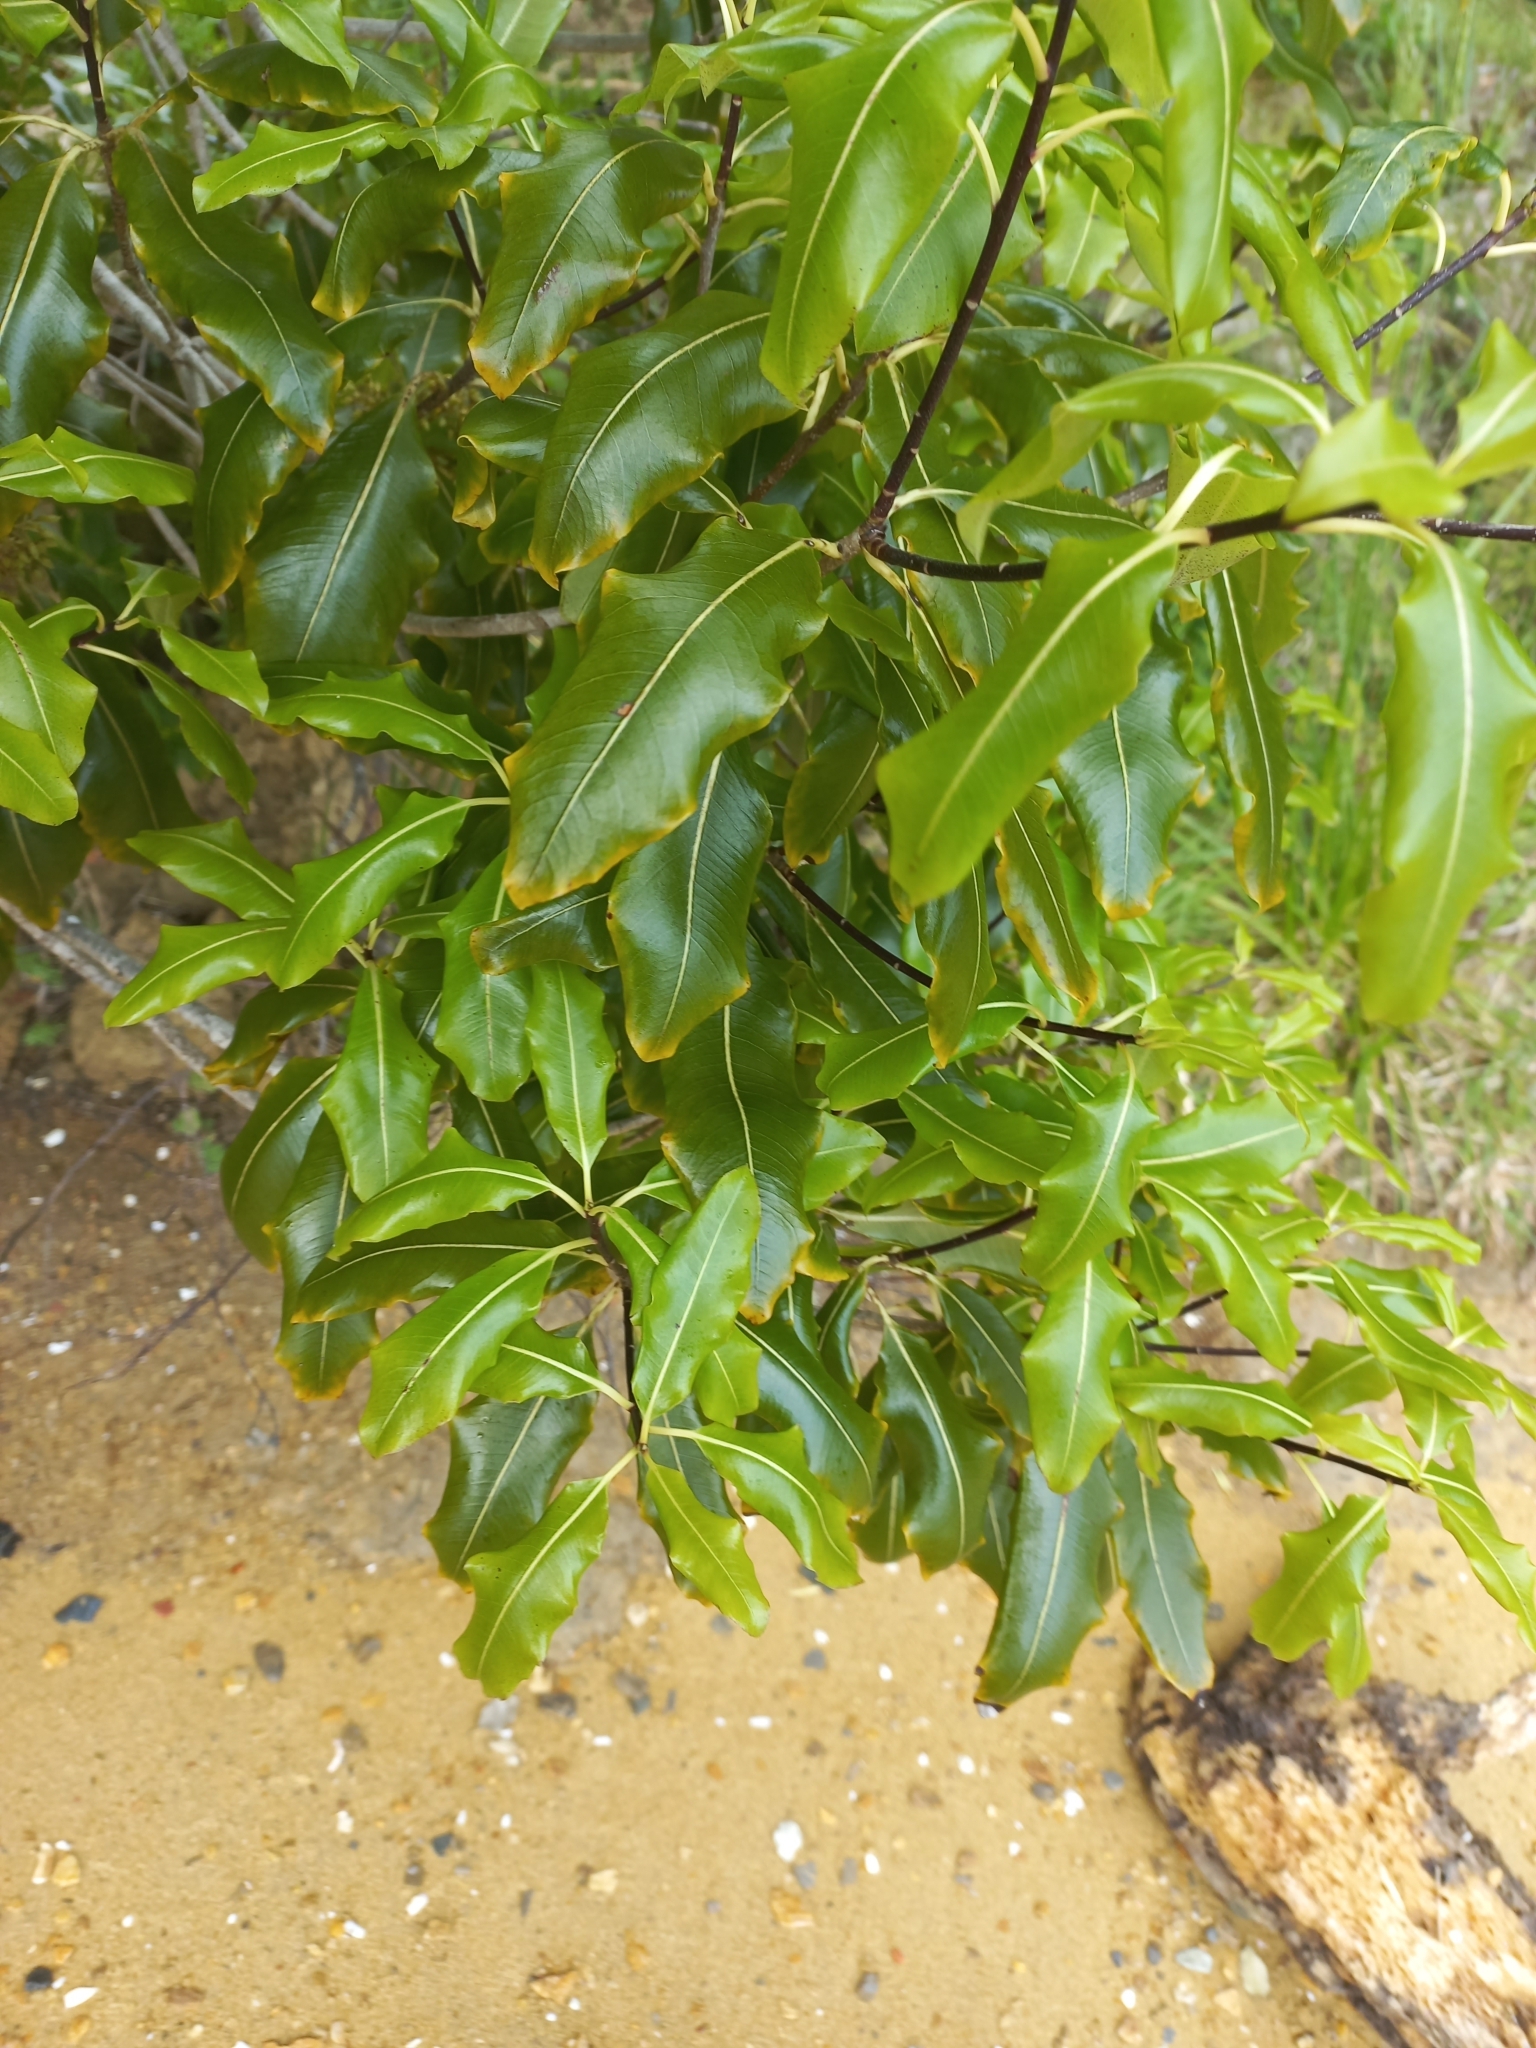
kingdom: Plantae
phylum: Tracheophyta
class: Magnoliopsida
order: Apiales
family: Pittosporaceae
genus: Pittosporum
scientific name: Pittosporum eugenioides
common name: Lemonwood
